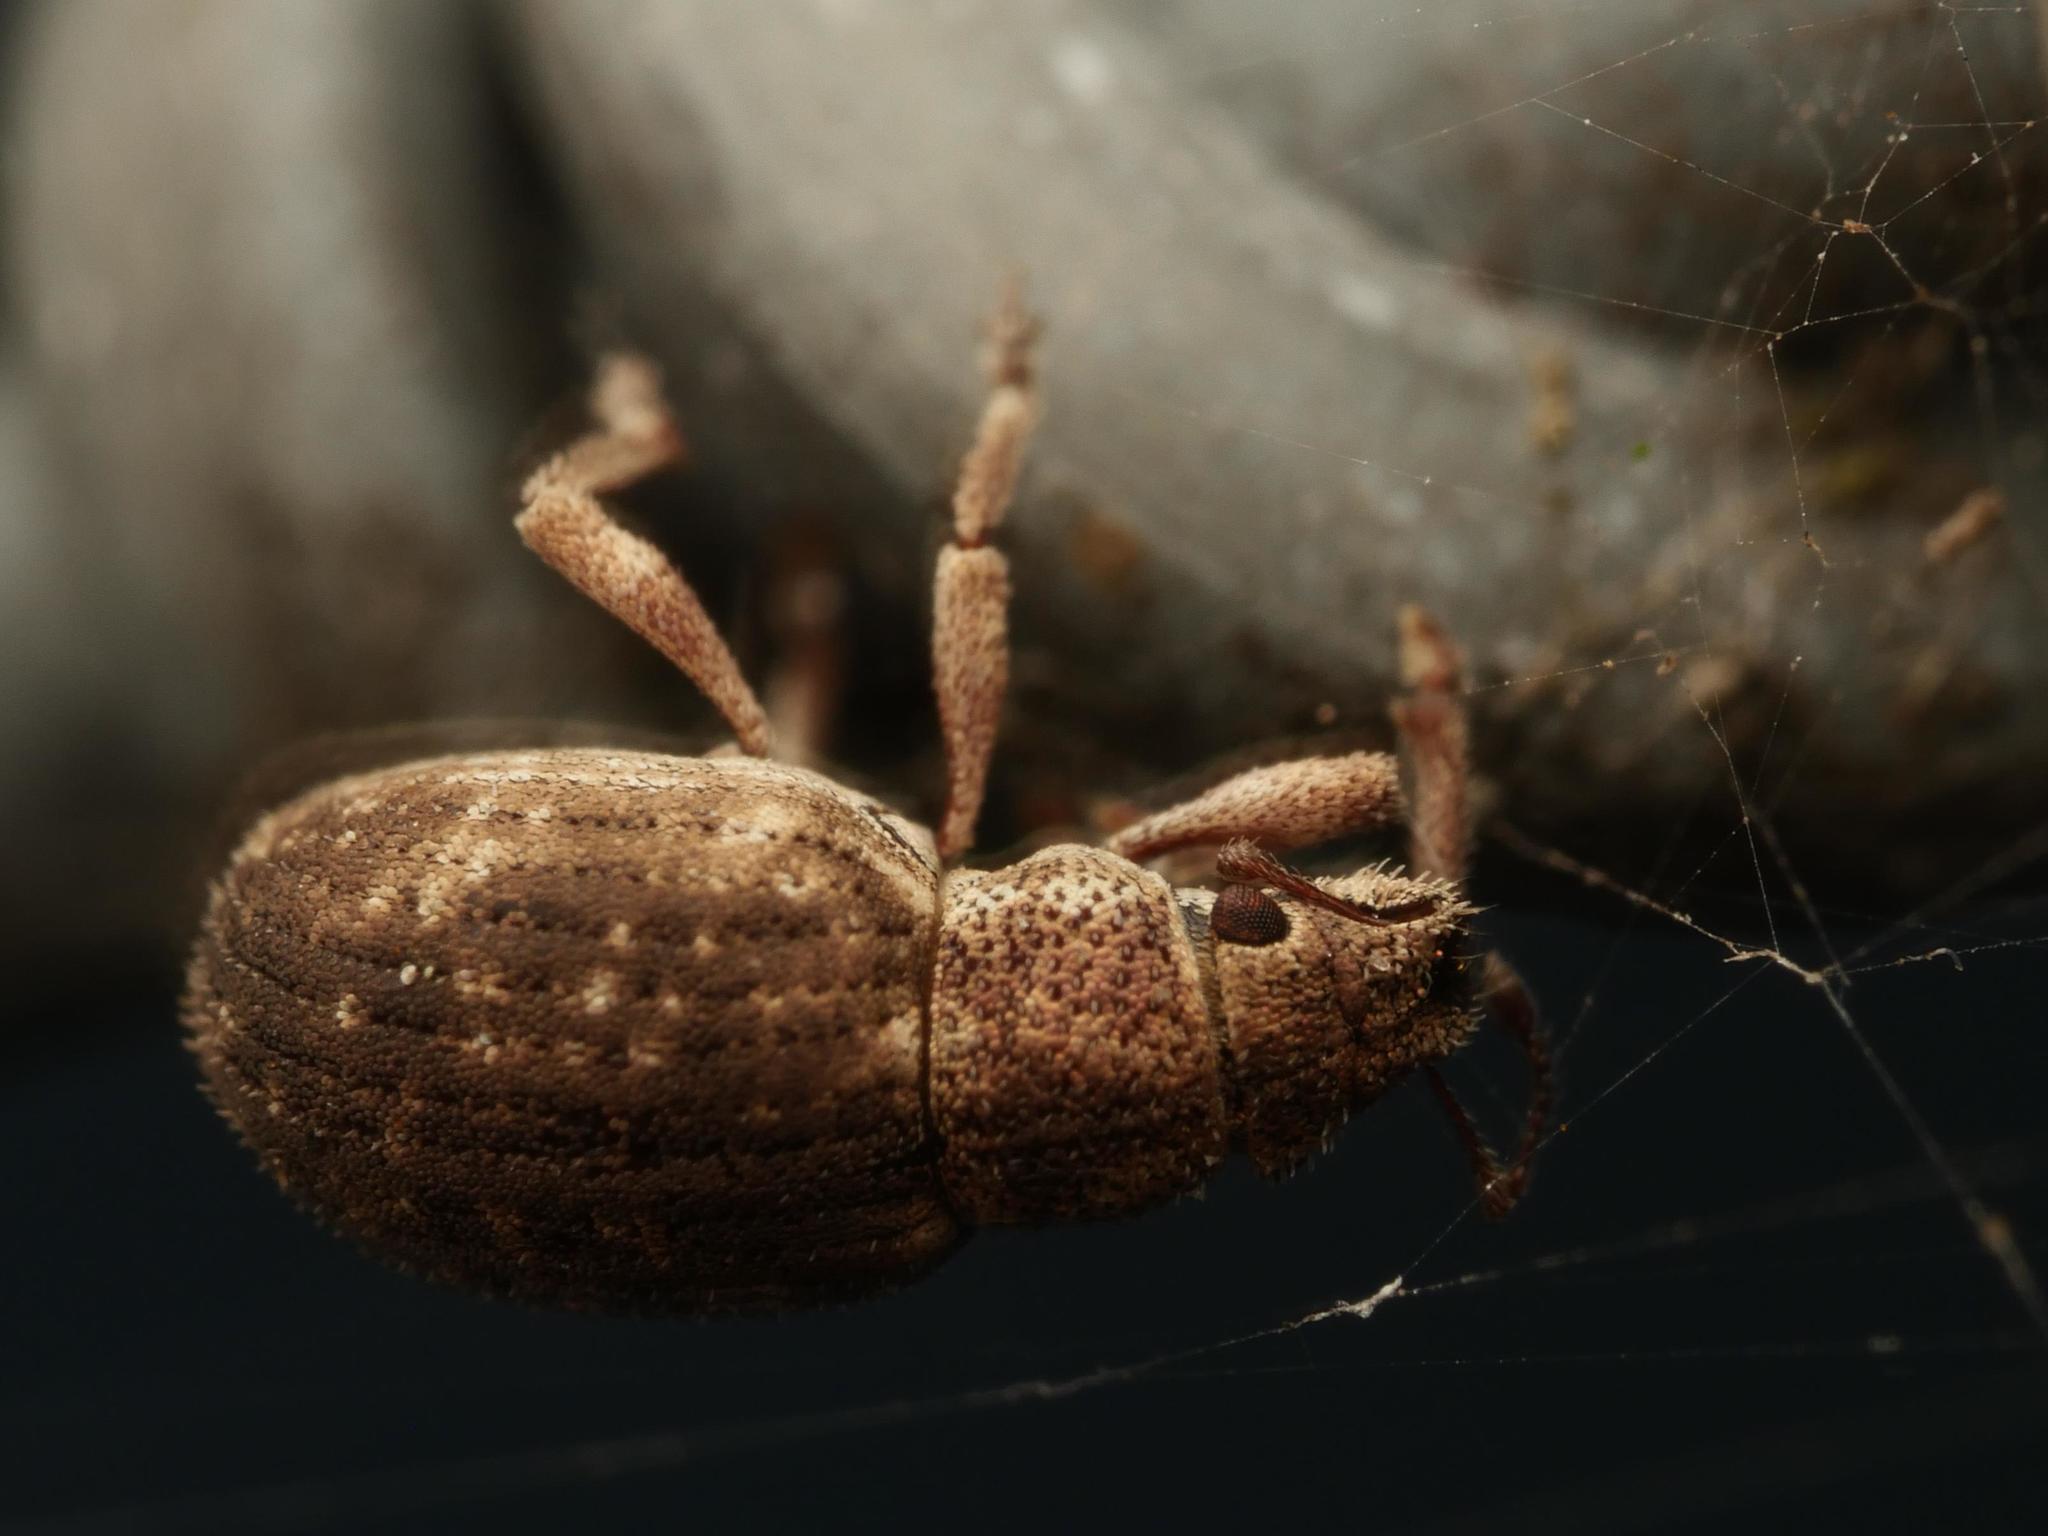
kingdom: Animalia
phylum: Arthropoda
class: Insecta
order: Coleoptera
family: Curculionidae
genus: Strophosoma
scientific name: Strophosoma capitatum
